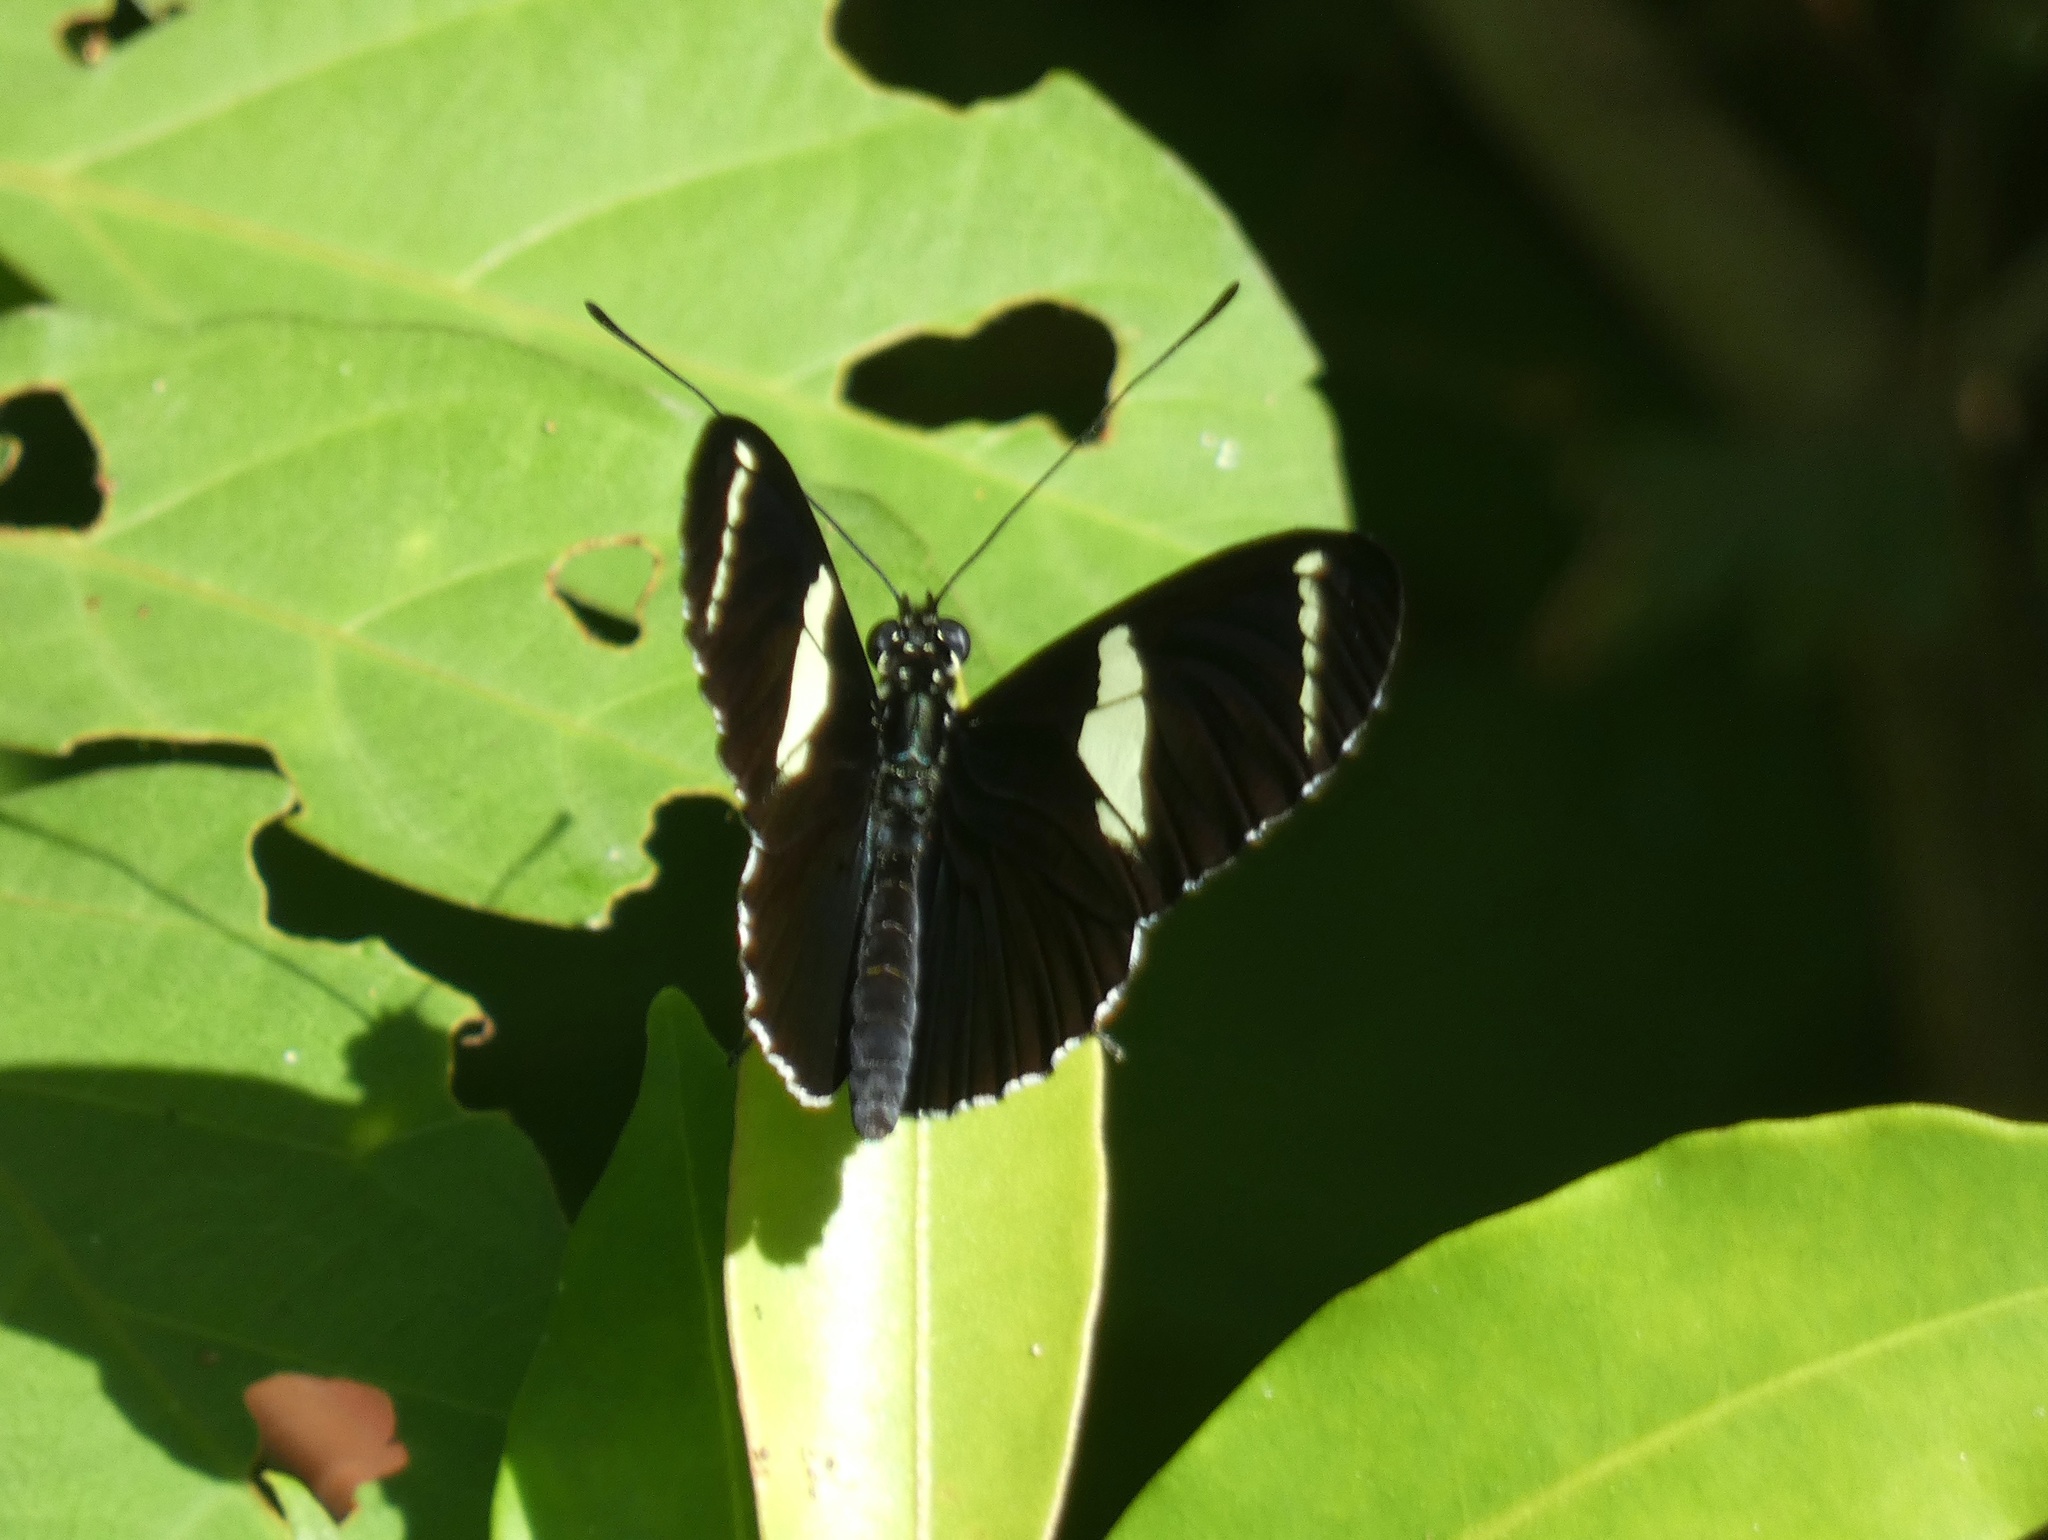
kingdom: Animalia
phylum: Arthropoda
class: Insecta
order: Lepidoptera
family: Nymphalidae
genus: Heliconius
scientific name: Heliconius sara
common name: Sara longwing
